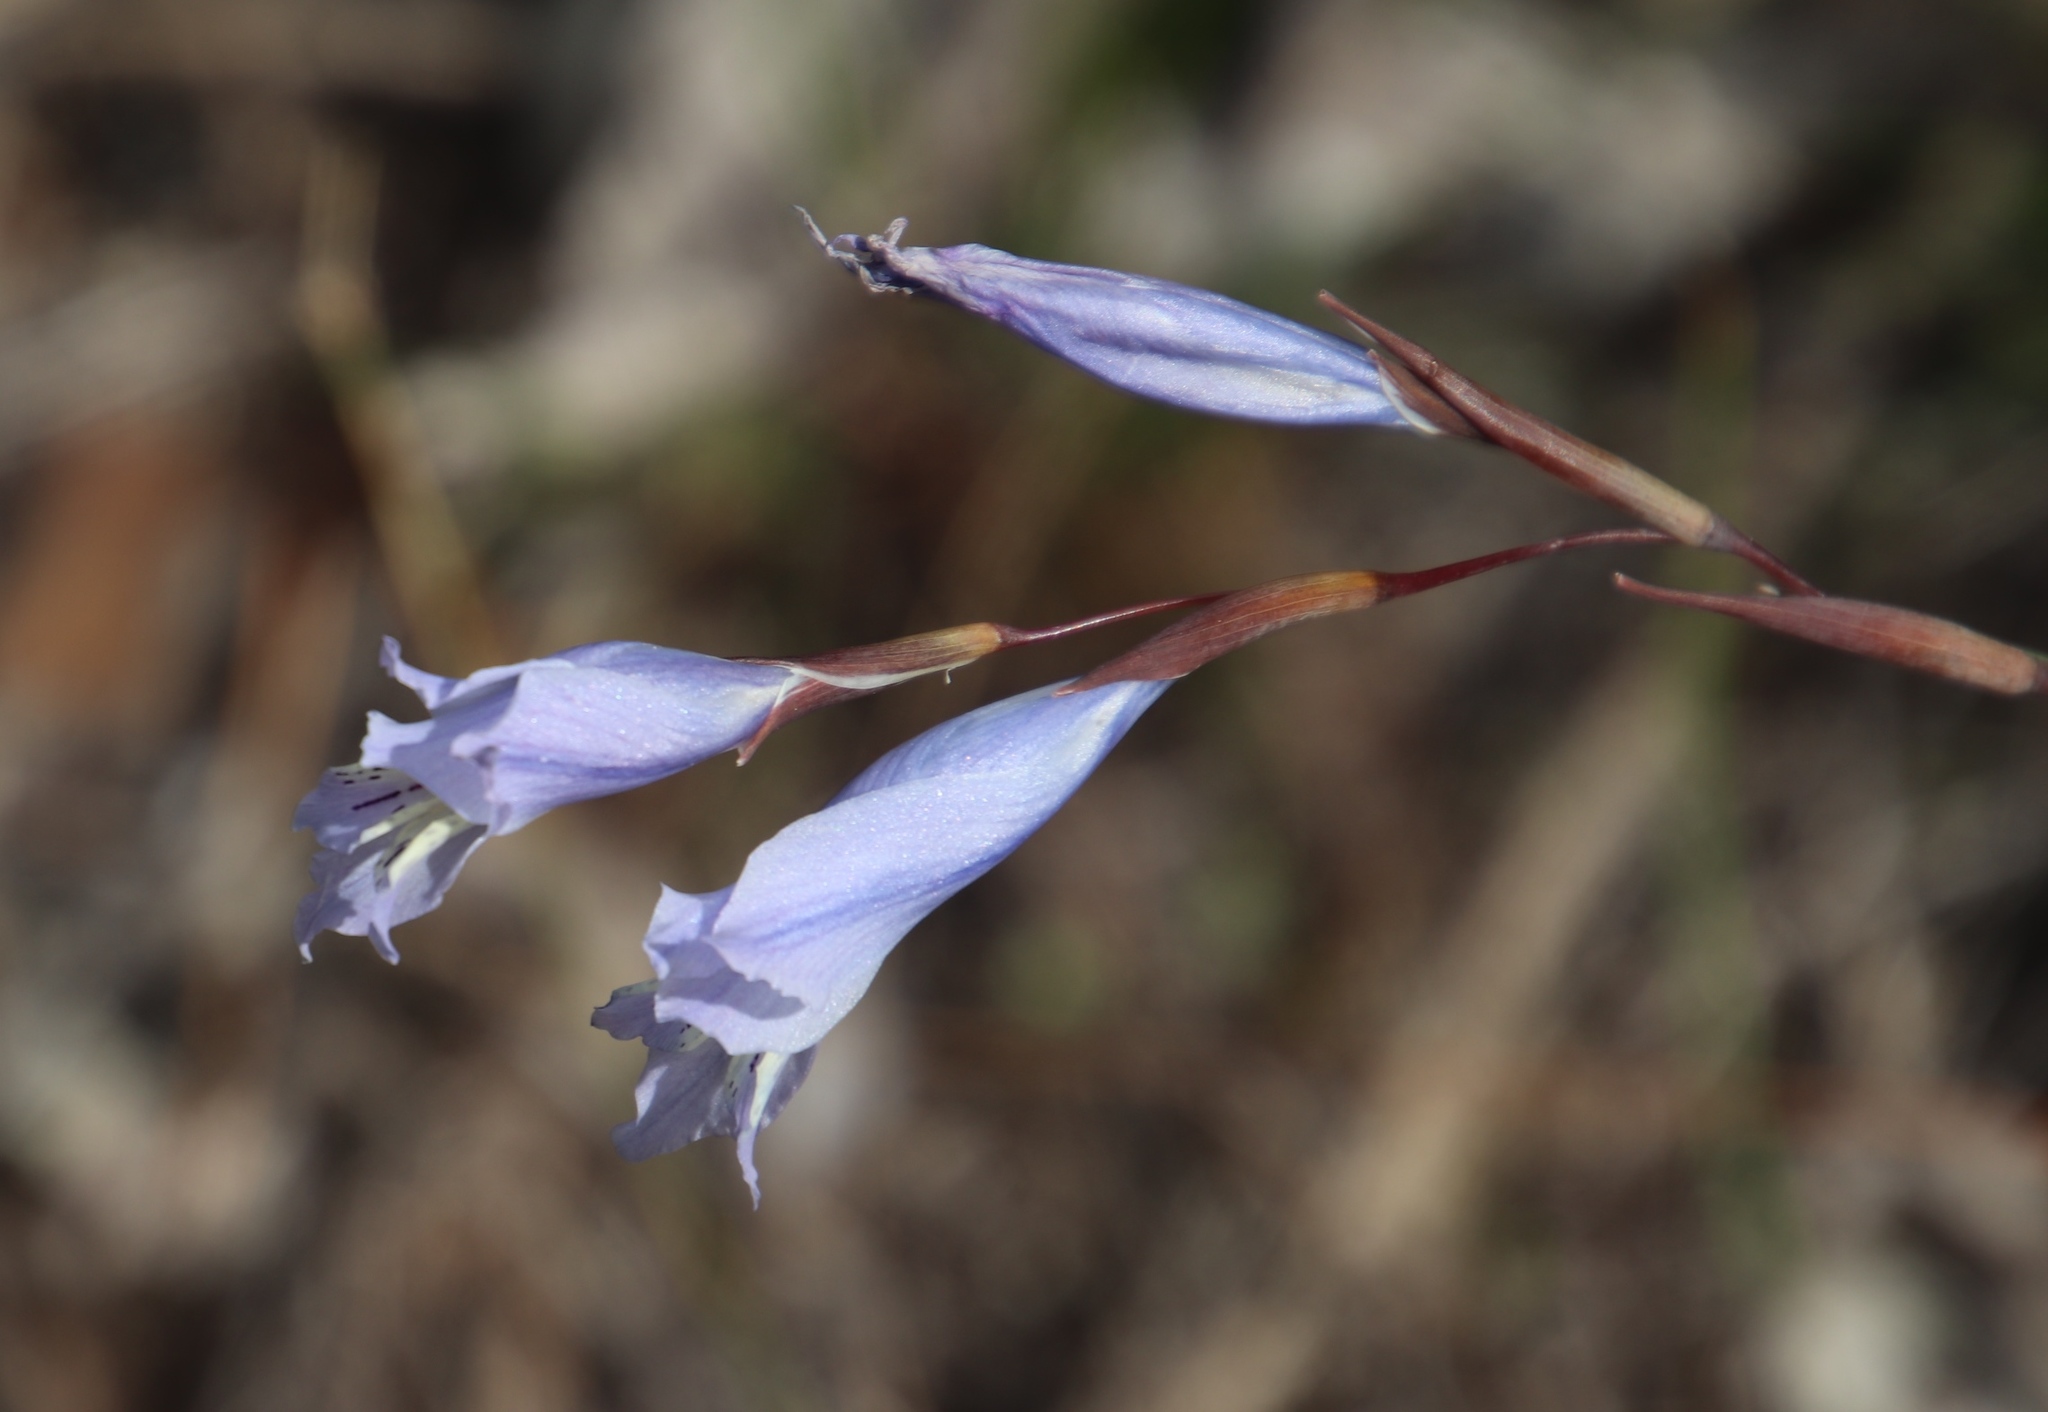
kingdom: Plantae
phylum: Tracheophyta
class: Liliopsida
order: Asparagales
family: Iridaceae
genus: Gladiolus
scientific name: Gladiolus gracilis
